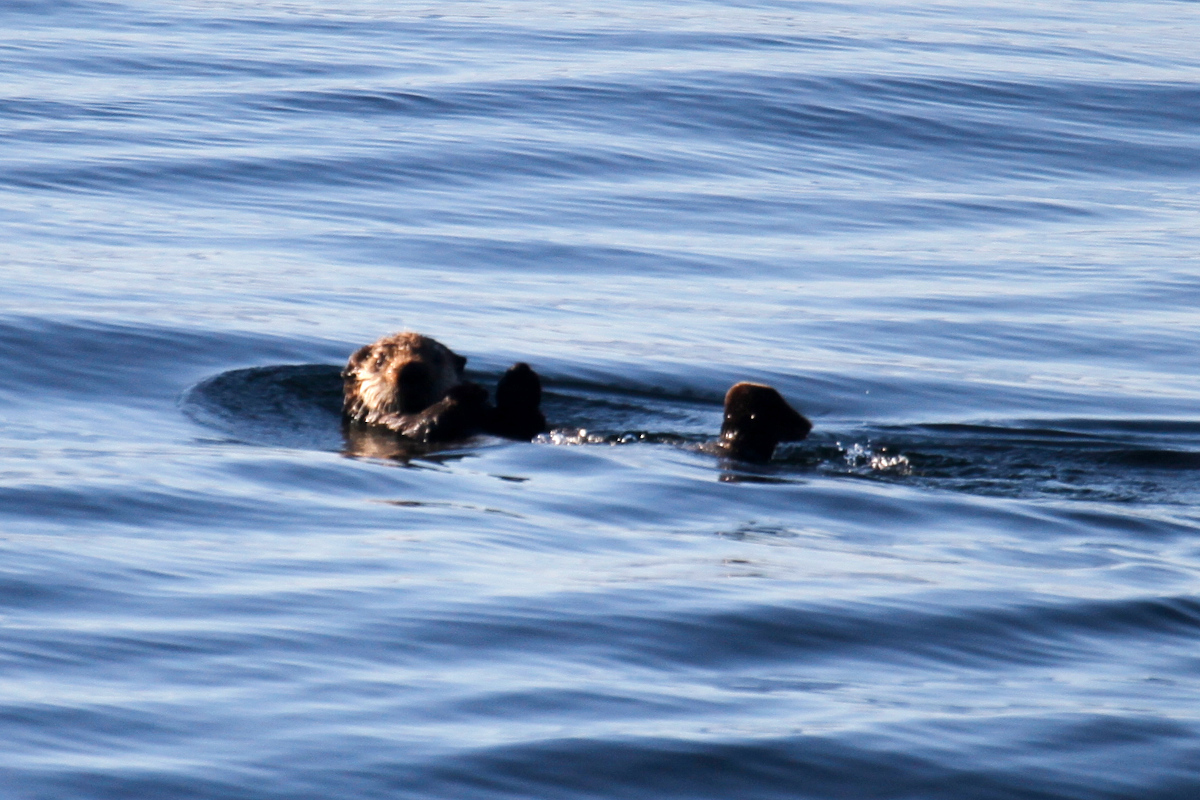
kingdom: Animalia
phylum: Chordata
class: Mammalia
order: Carnivora
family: Mustelidae
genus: Enhydra
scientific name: Enhydra lutris
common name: Sea otter
